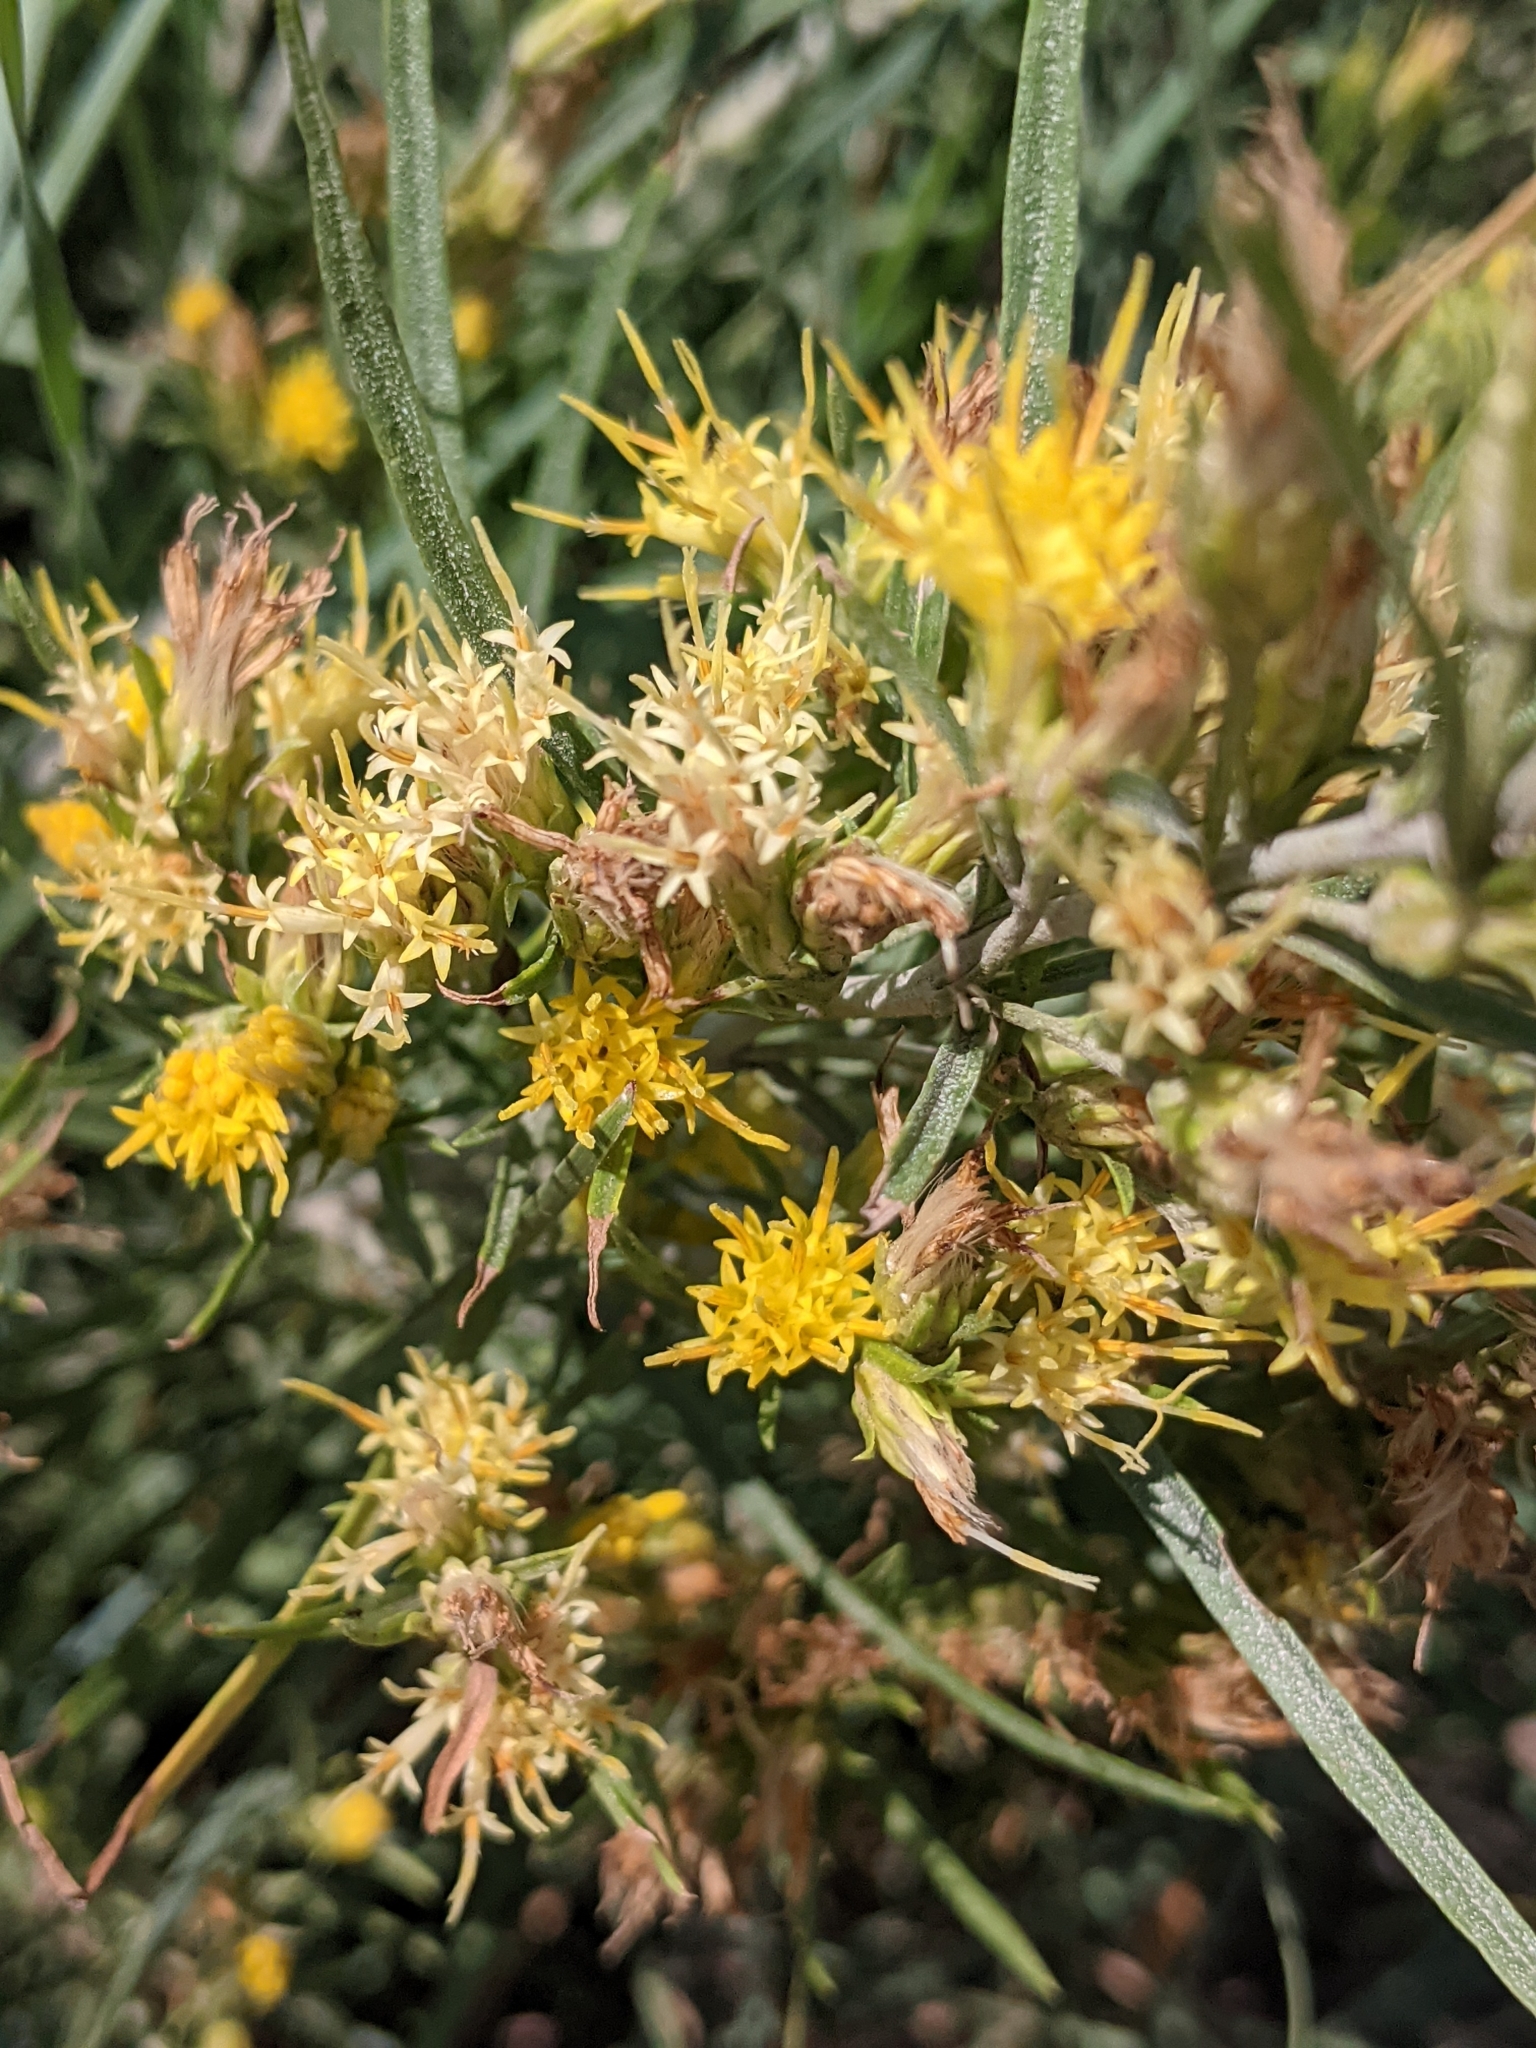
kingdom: Plantae
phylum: Tracheophyta
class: Magnoliopsida
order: Asterales
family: Asteraceae
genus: Ericameria
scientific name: Ericameria nauseosa
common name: Rubber rabbitbrush
